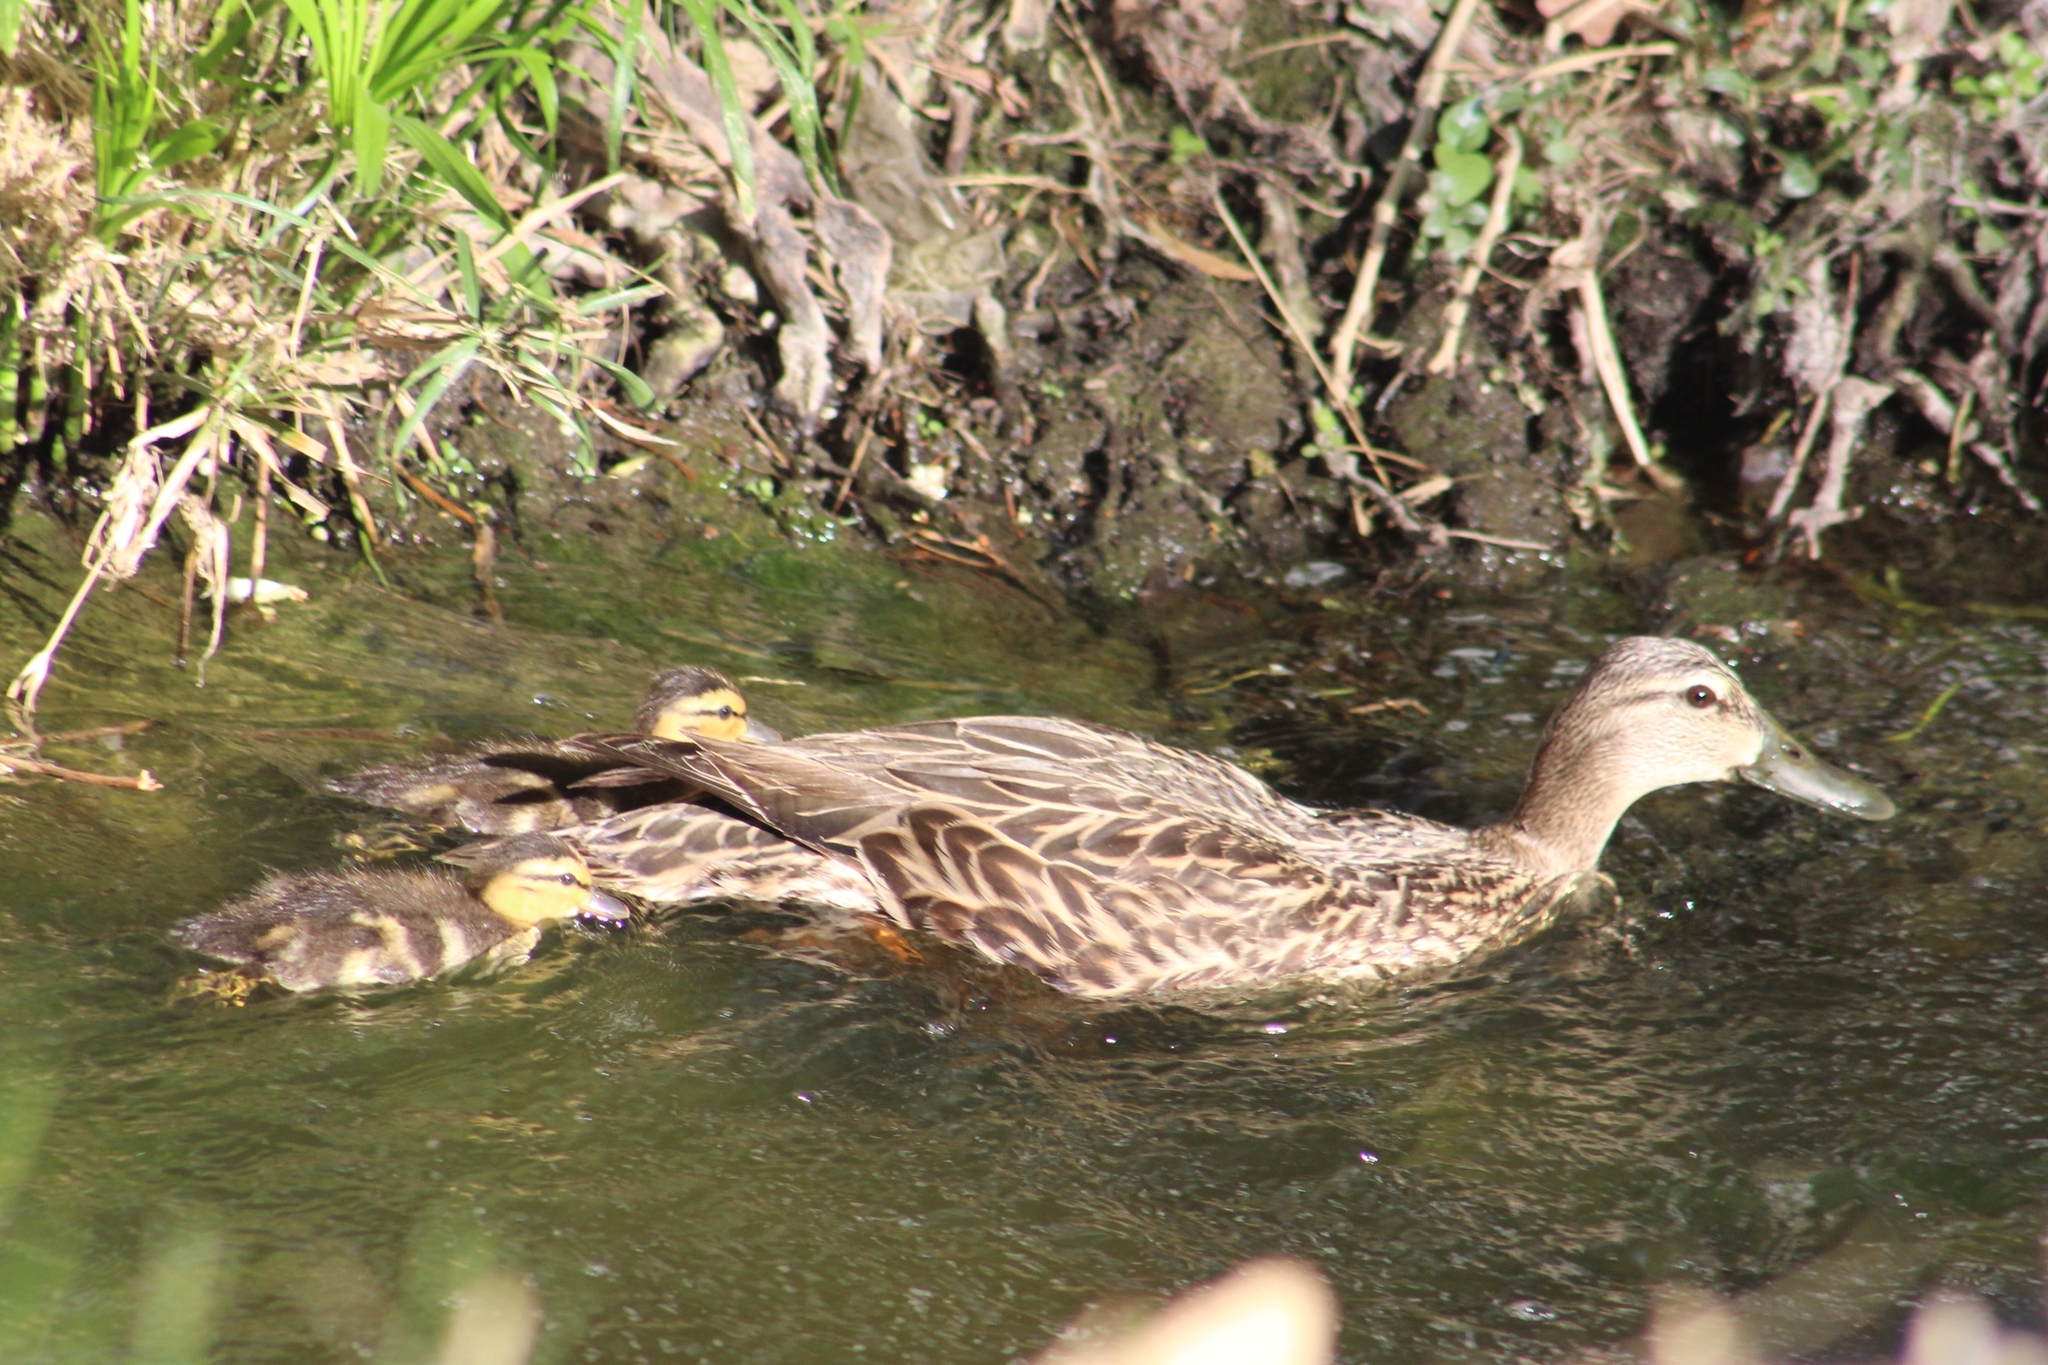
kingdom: Animalia
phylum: Chordata
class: Aves
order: Anseriformes
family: Anatidae
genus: Anas
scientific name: Anas diazi
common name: Mexican duck
